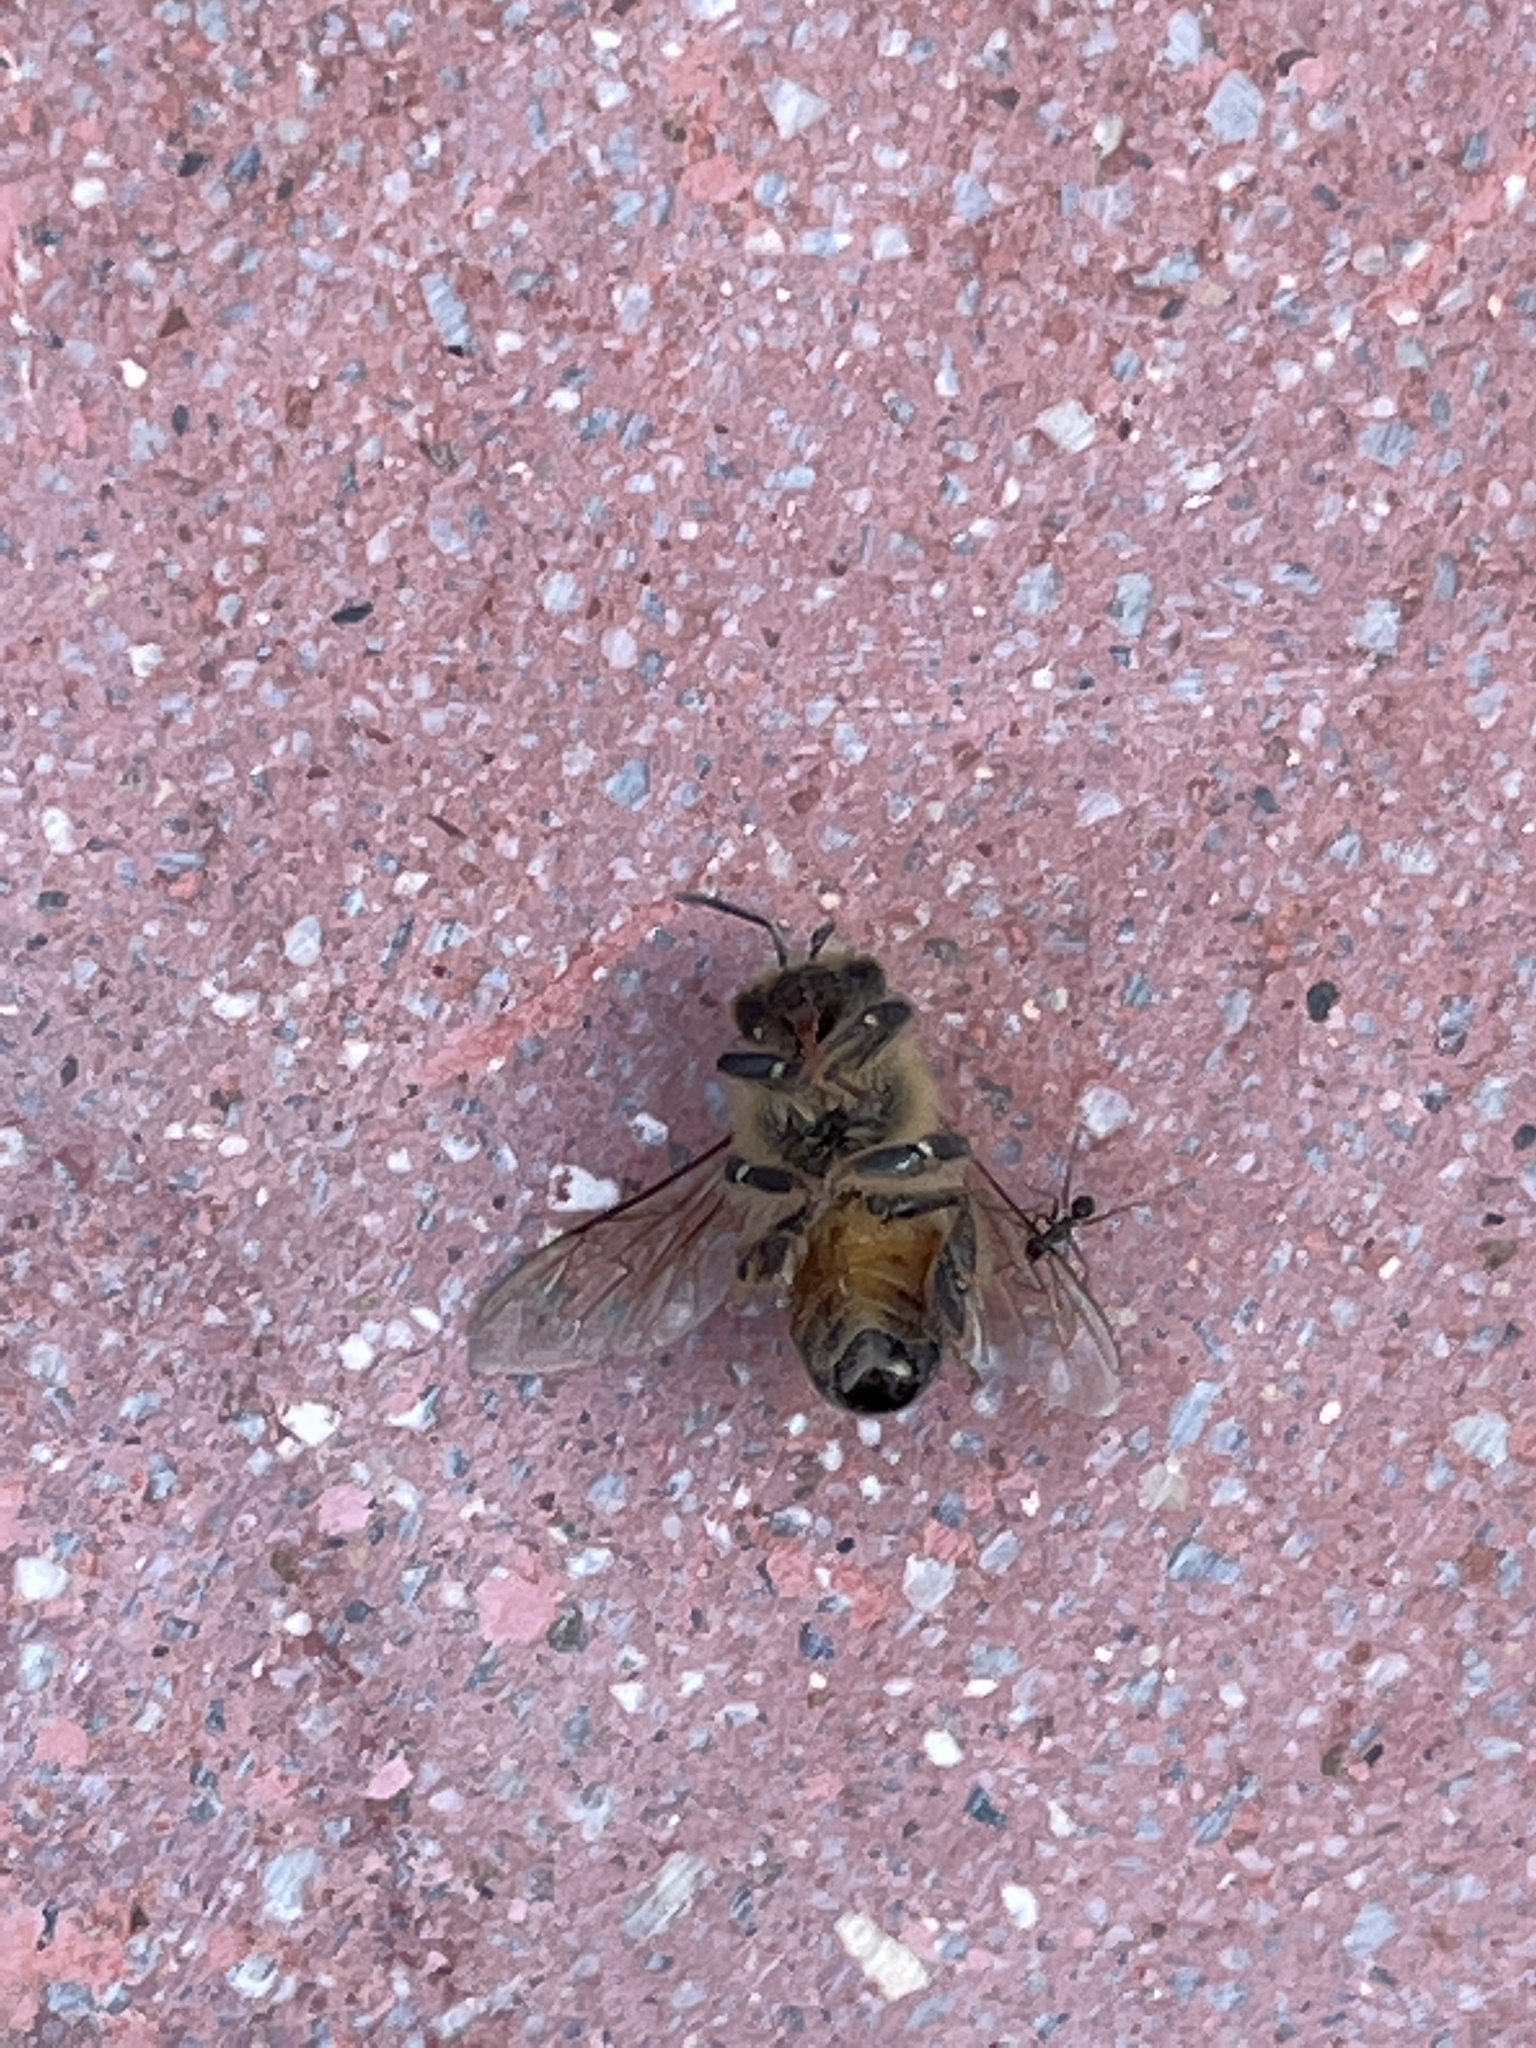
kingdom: Animalia
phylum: Arthropoda
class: Insecta
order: Hymenoptera
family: Apidae
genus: Apis
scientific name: Apis mellifera
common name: Honey bee
